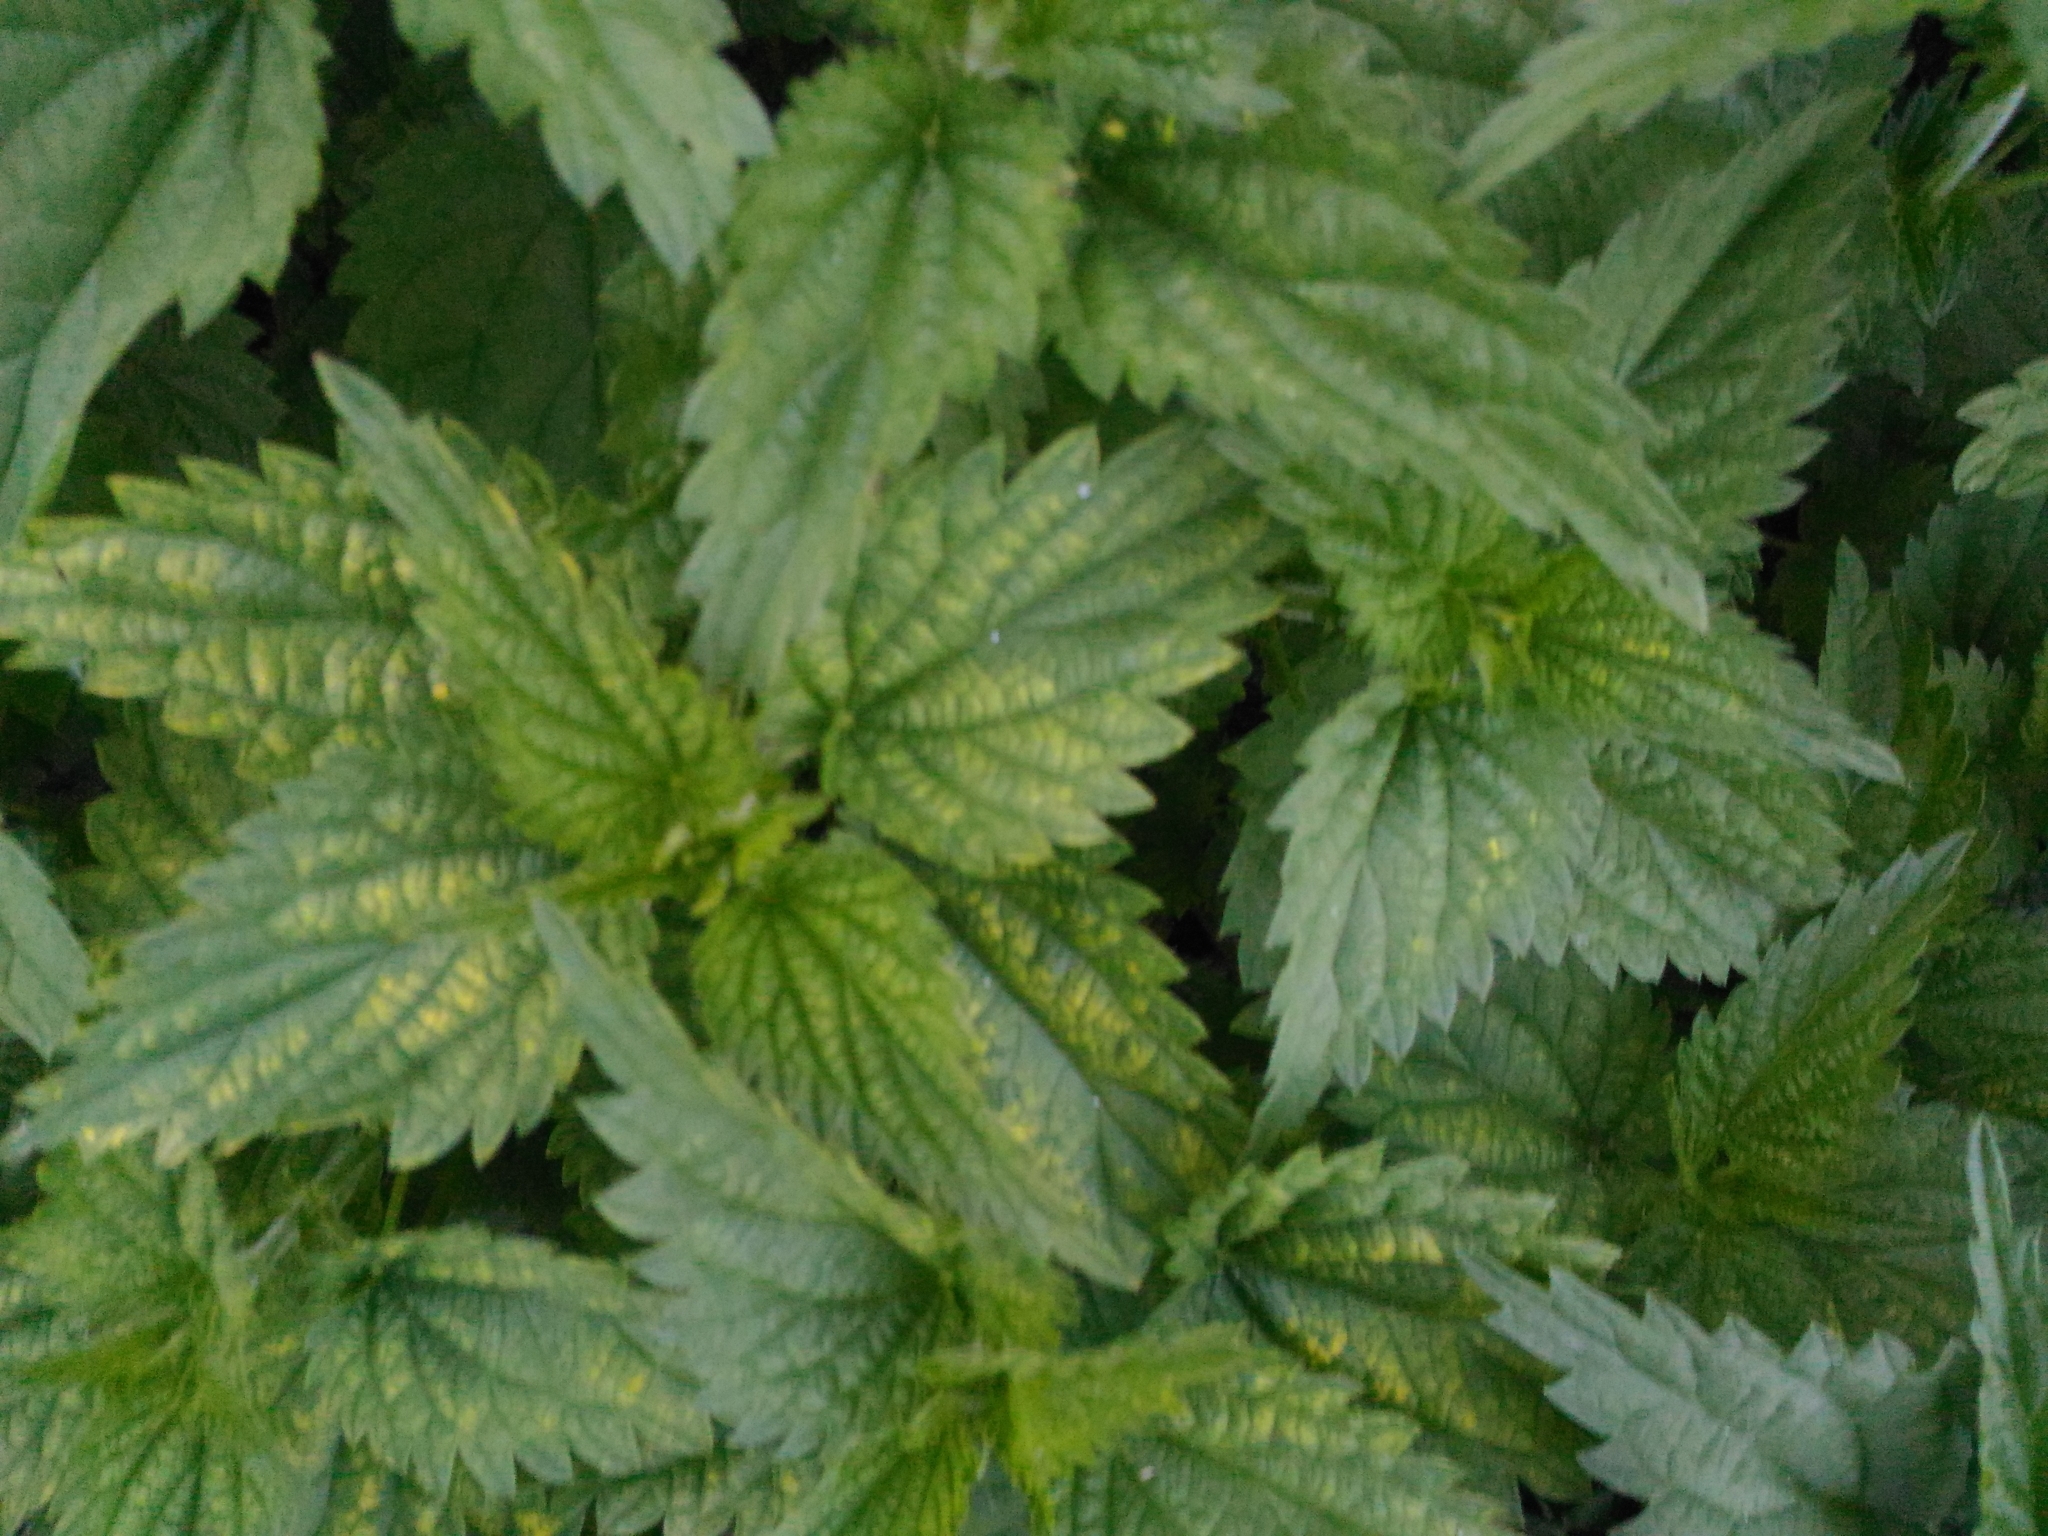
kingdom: Plantae
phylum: Tracheophyta
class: Magnoliopsida
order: Rosales
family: Urticaceae
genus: Urtica
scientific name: Urtica dioica
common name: Common nettle
